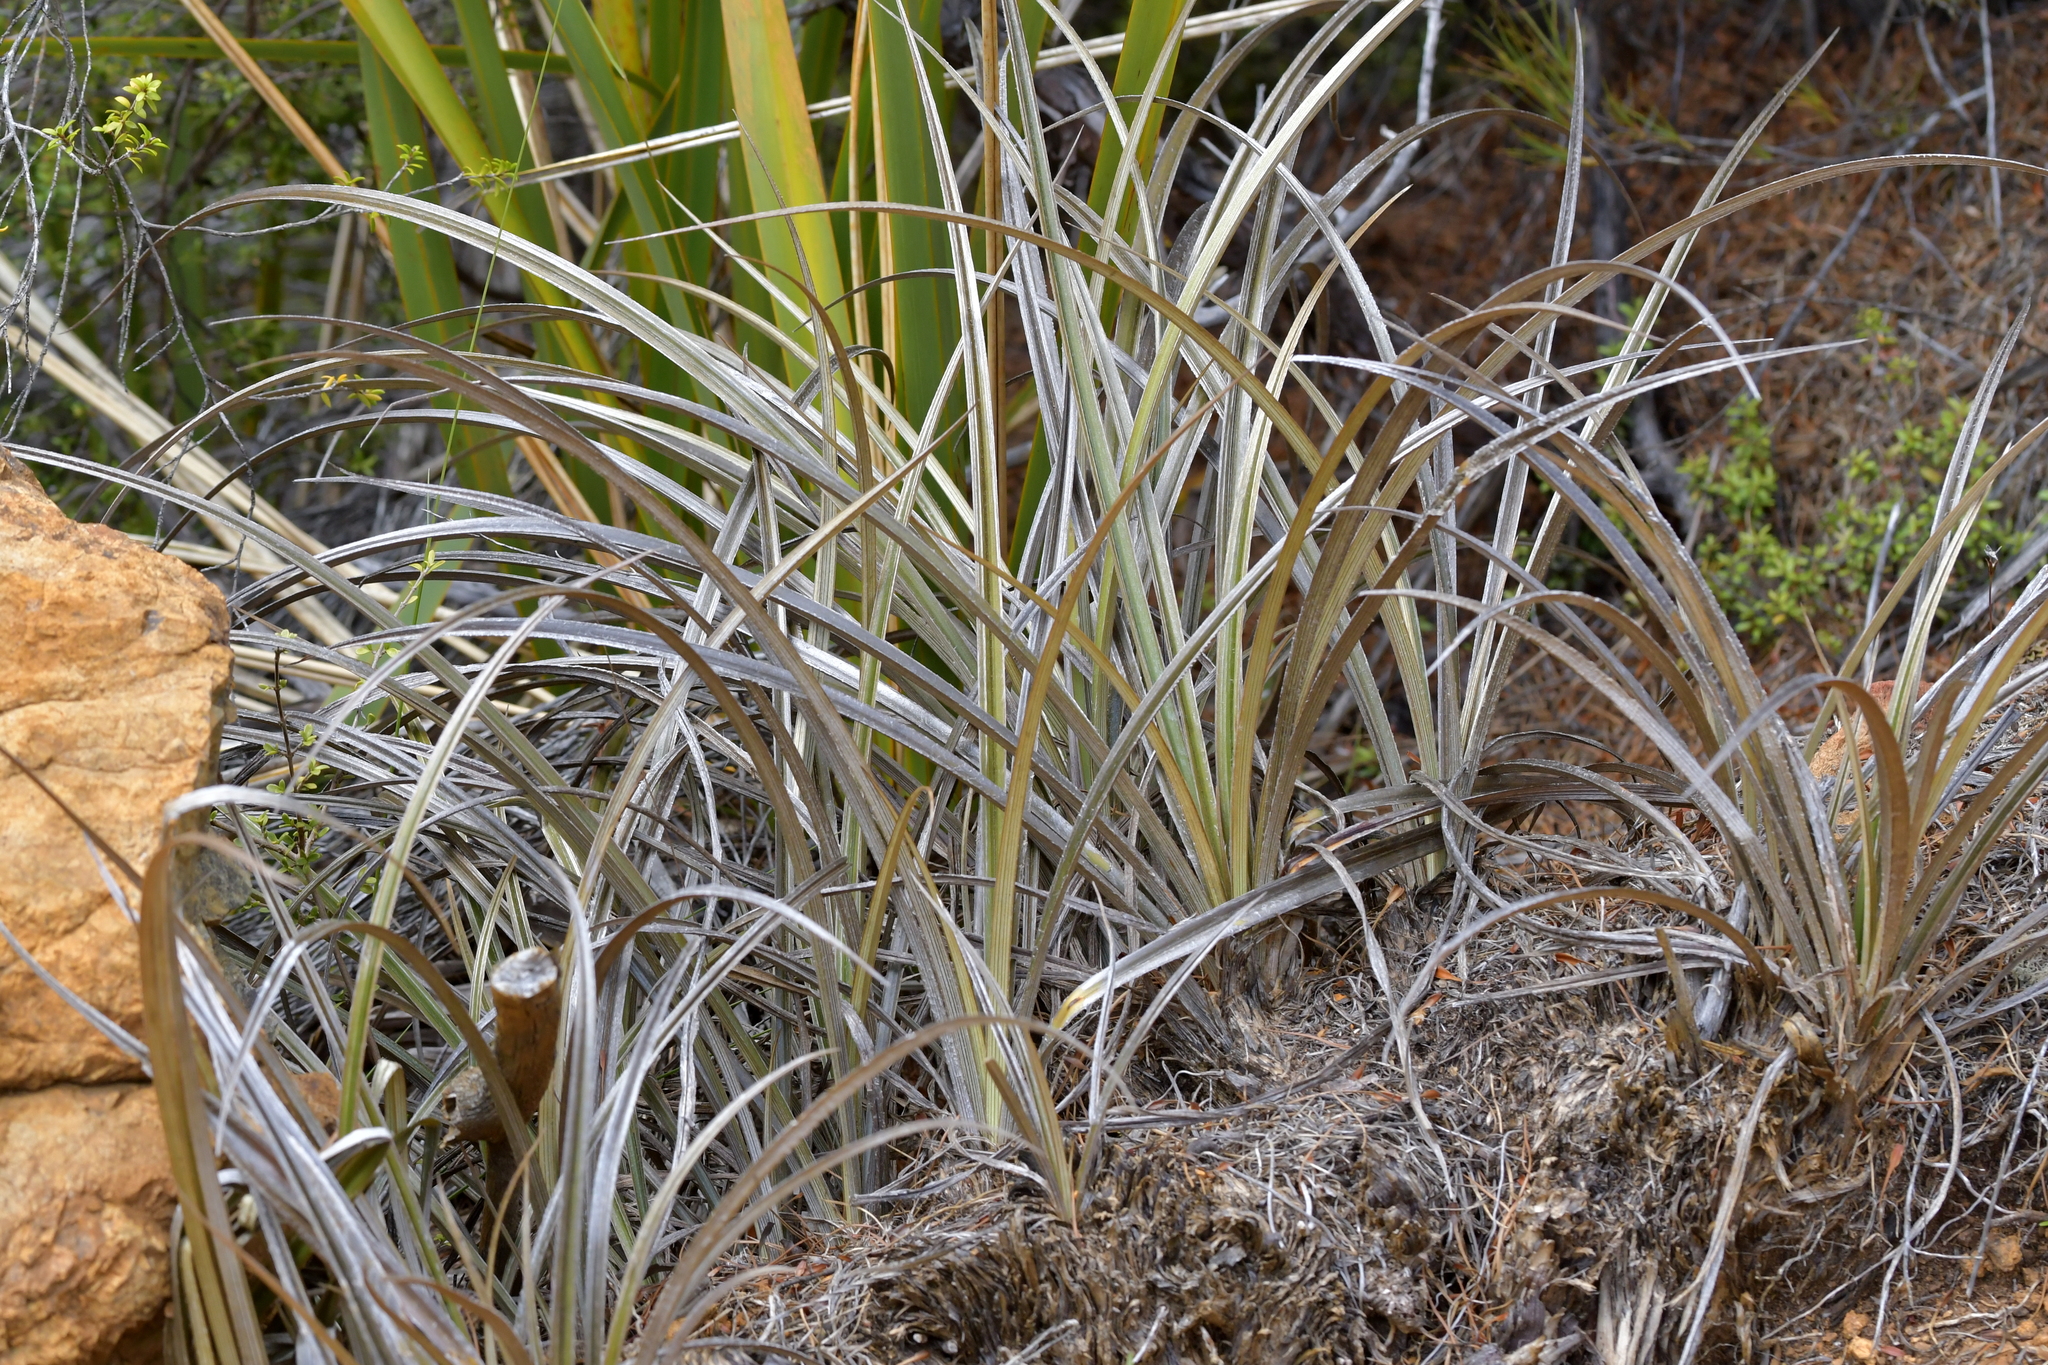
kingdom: Plantae
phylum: Tracheophyta
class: Liliopsida
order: Asparagales
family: Asteliaceae
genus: Astelia
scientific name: Astelia nervosa
